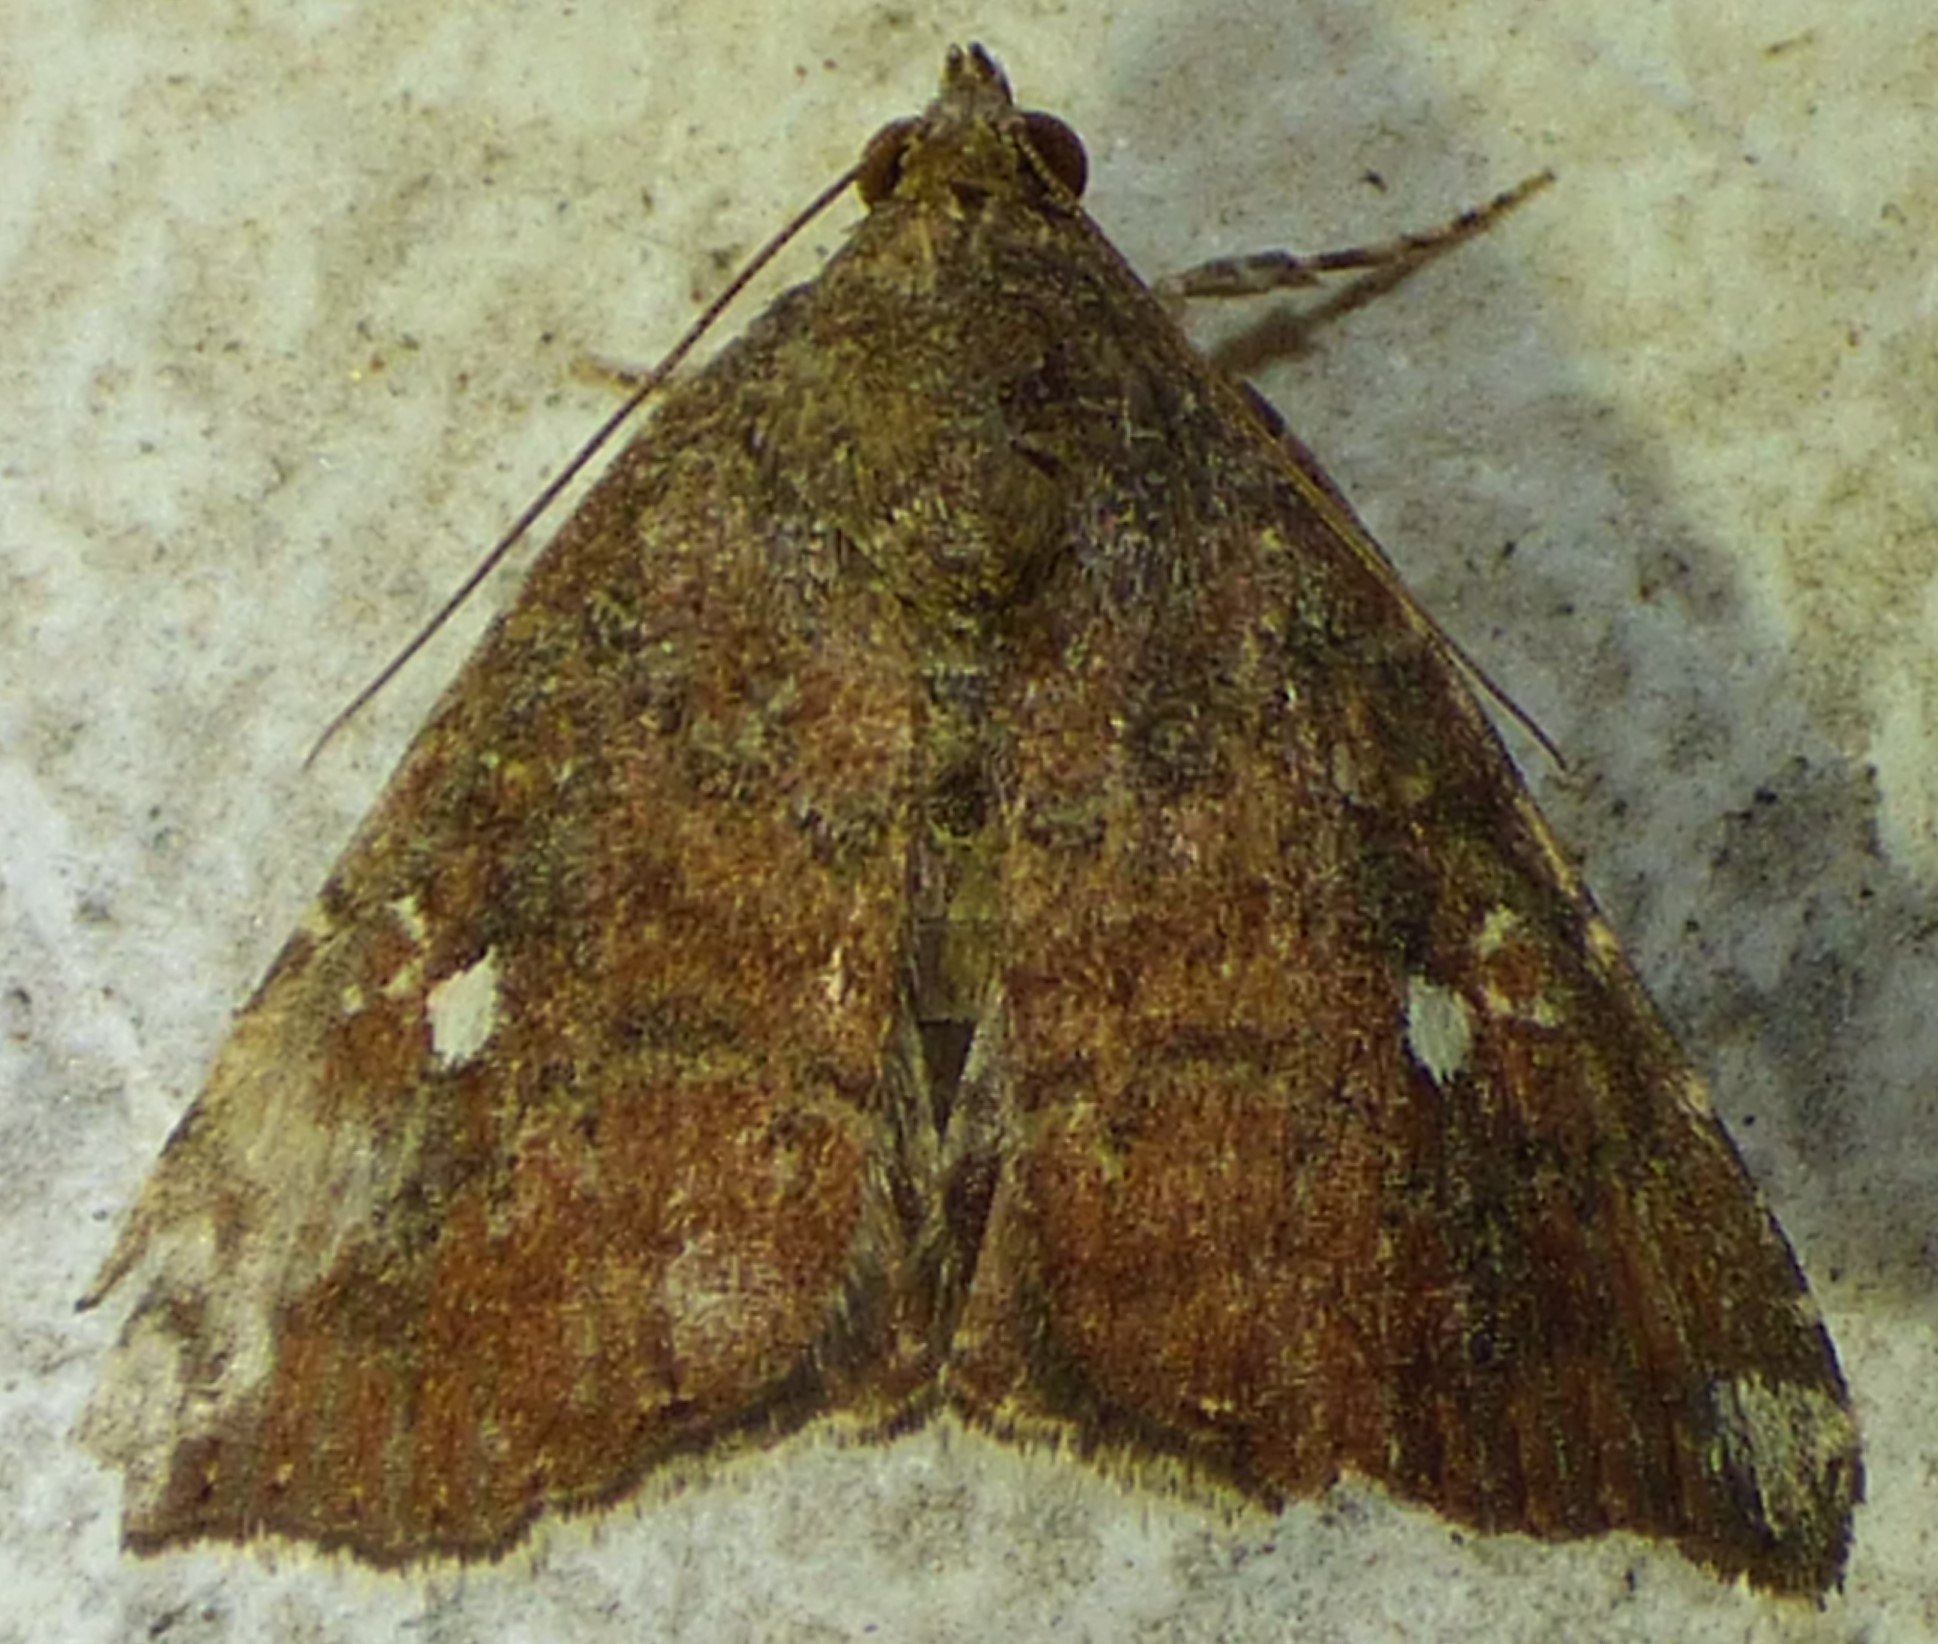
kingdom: Animalia
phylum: Arthropoda
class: Insecta
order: Lepidoptera
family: Noctuidae
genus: Amyna
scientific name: Amyna bullula
